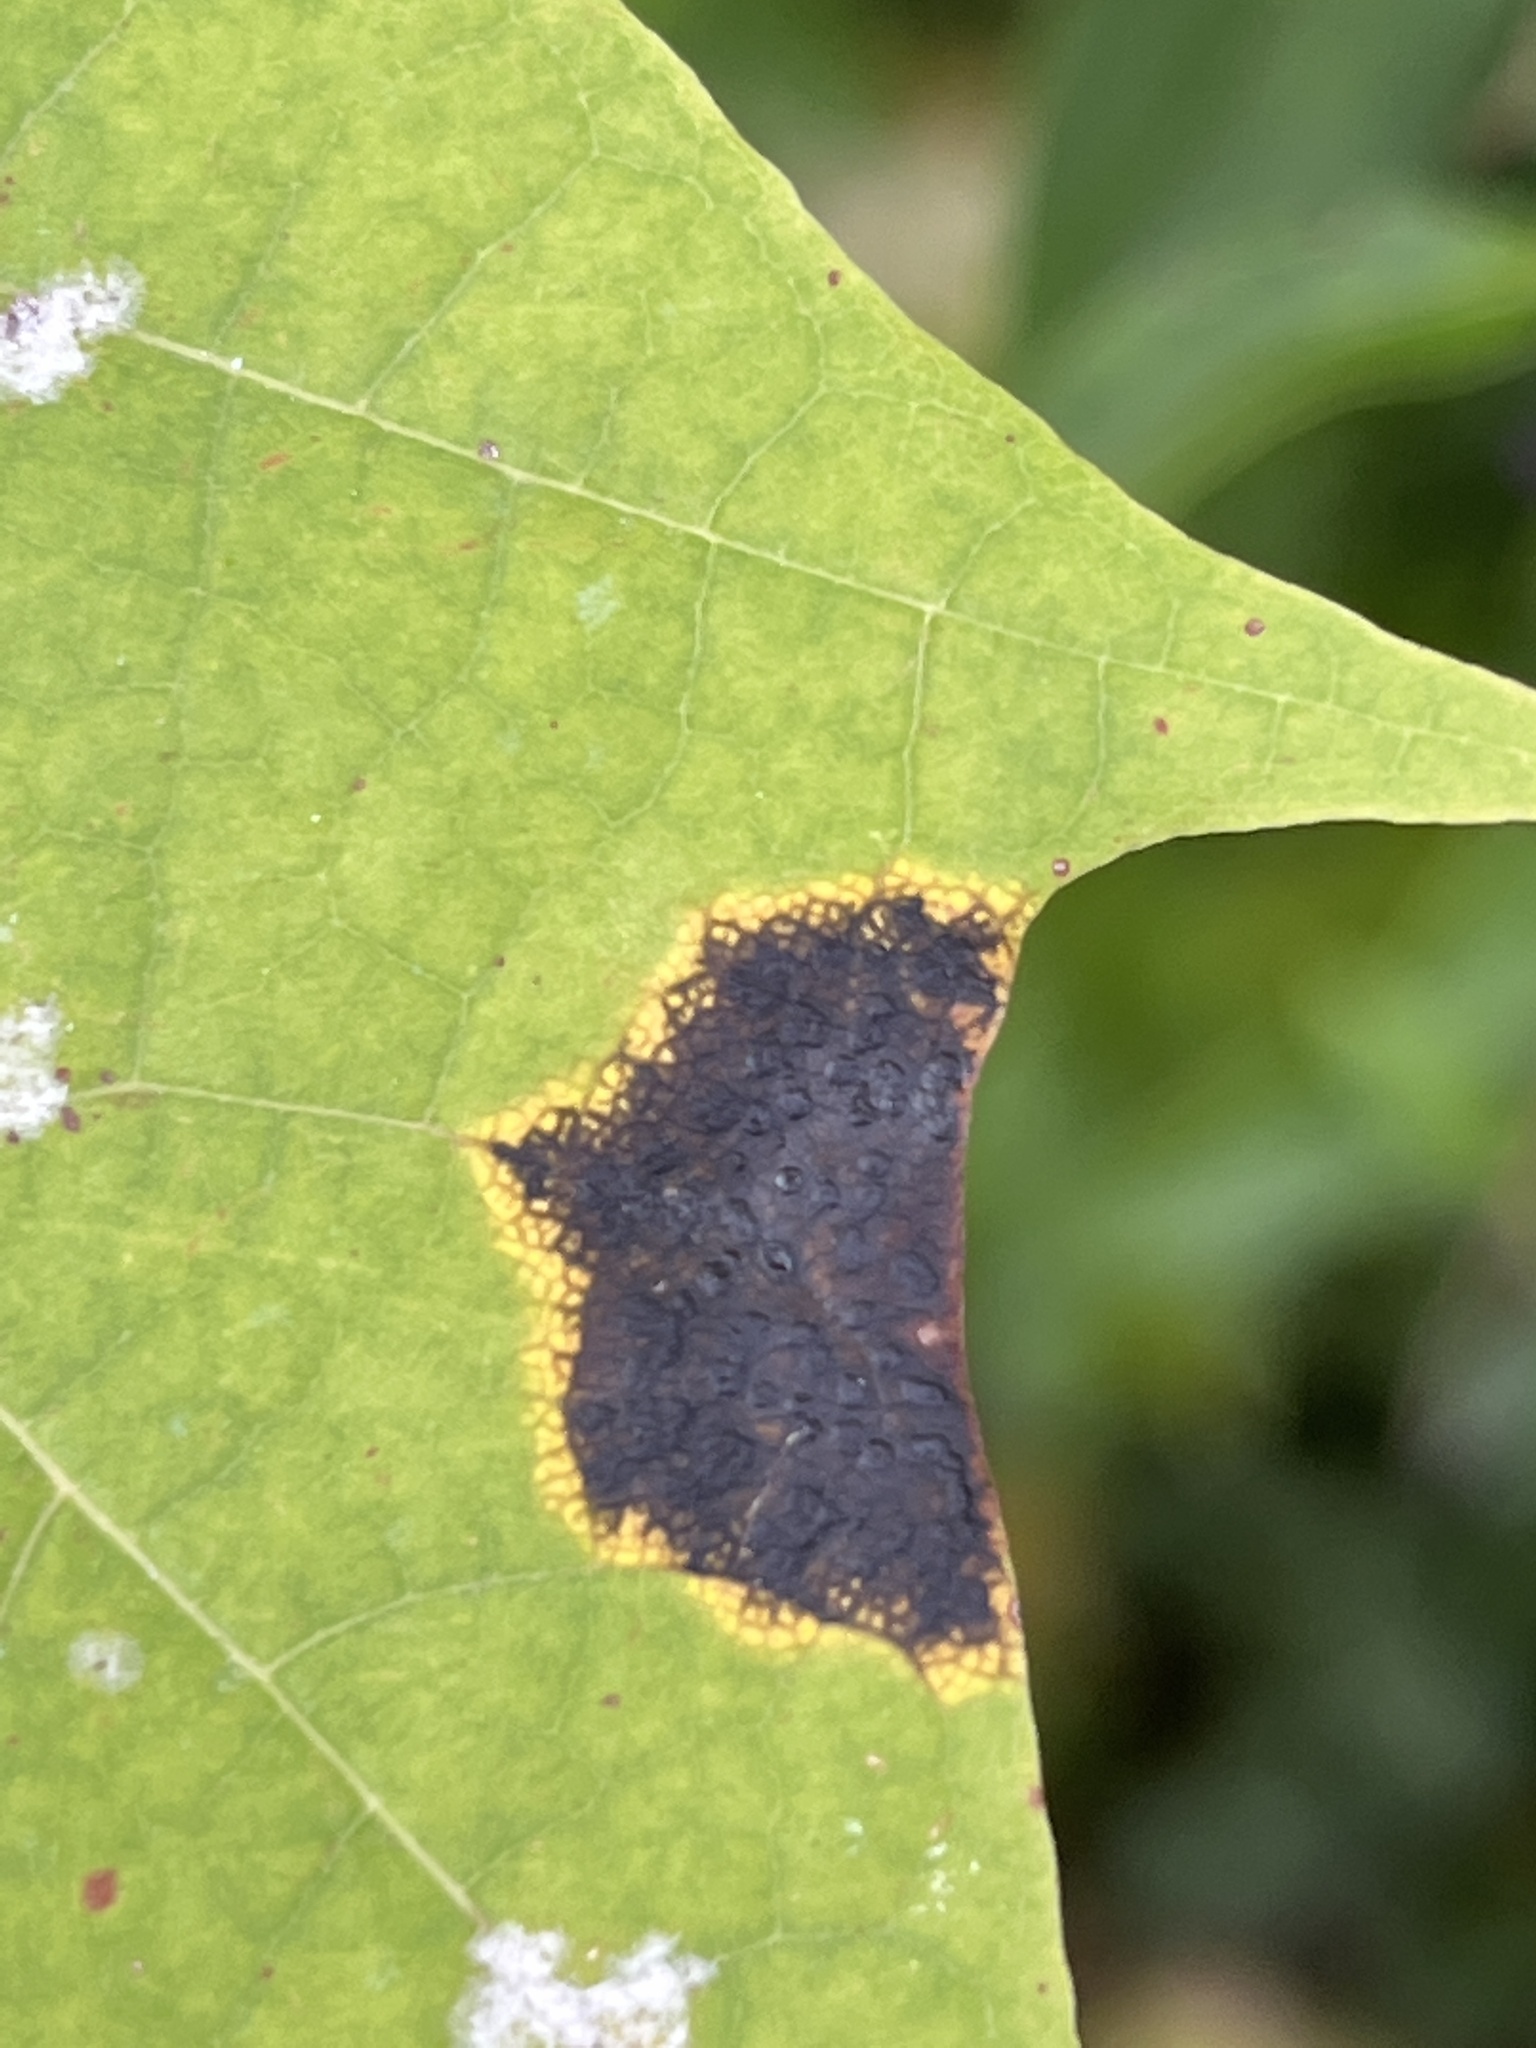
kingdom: Fungi
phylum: Ascomycota
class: Leotiomycetes
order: Rhytismatales
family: Rhytismataceae
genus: Rhytisma
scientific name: Rhytisma acerinum
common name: European tar spot
